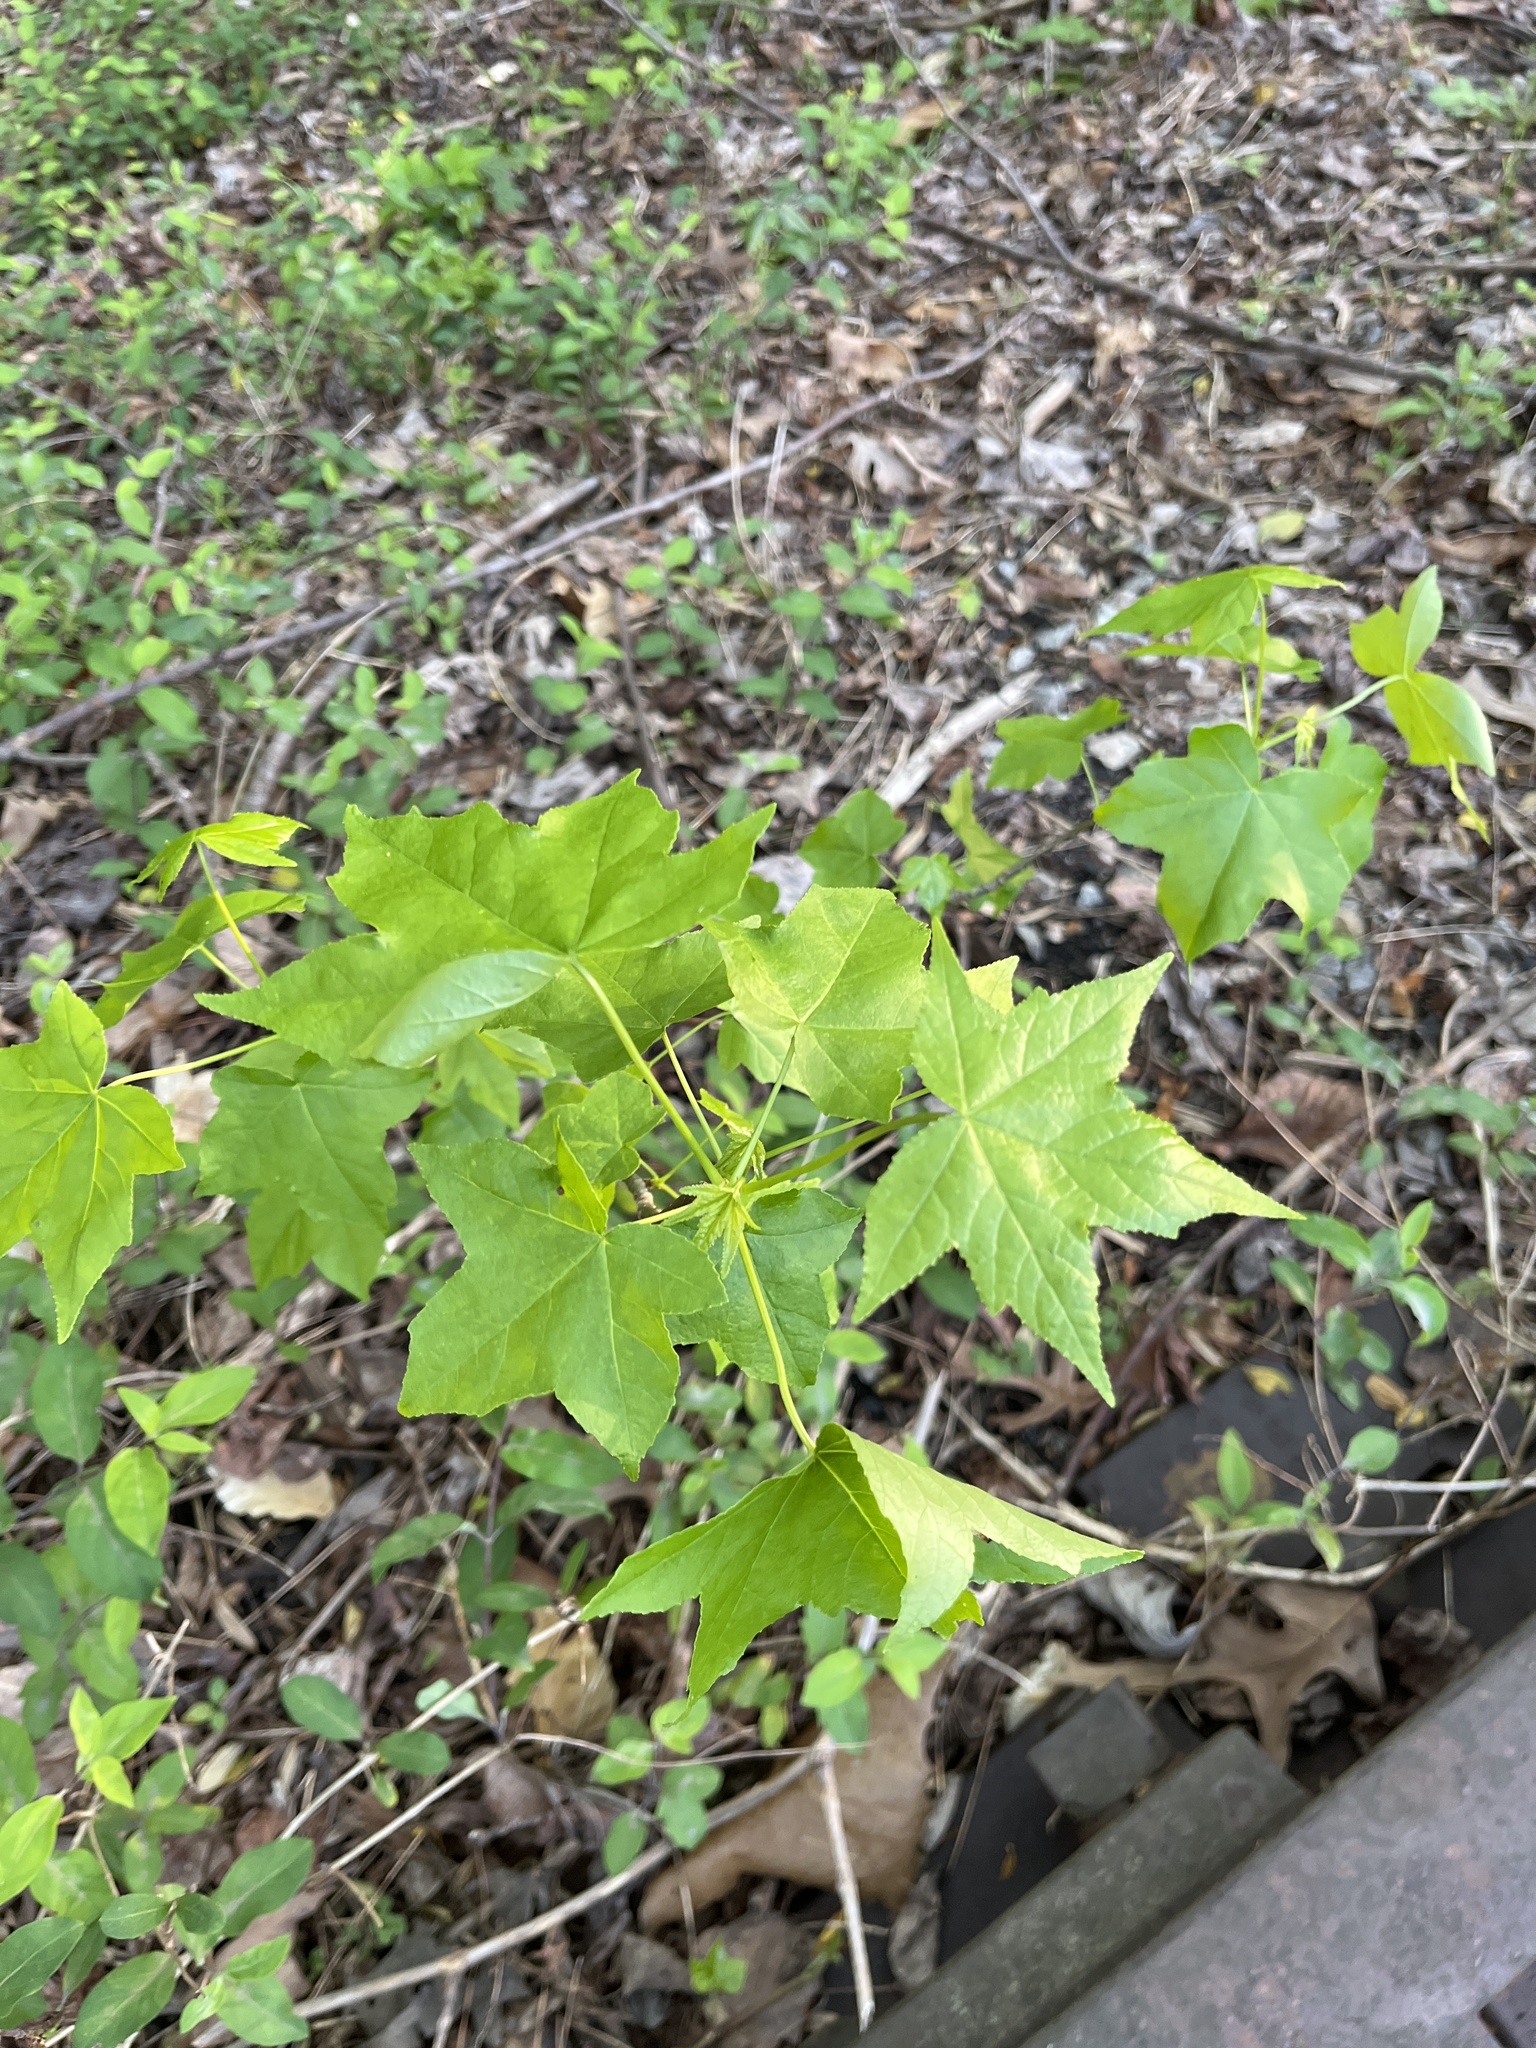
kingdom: Plantae
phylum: Tracheophyta
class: Magnoliopsida
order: Saxifragales
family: Altingiaceae
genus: Liquidambar
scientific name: Liquidambar styraciflua
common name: Sweet gum
